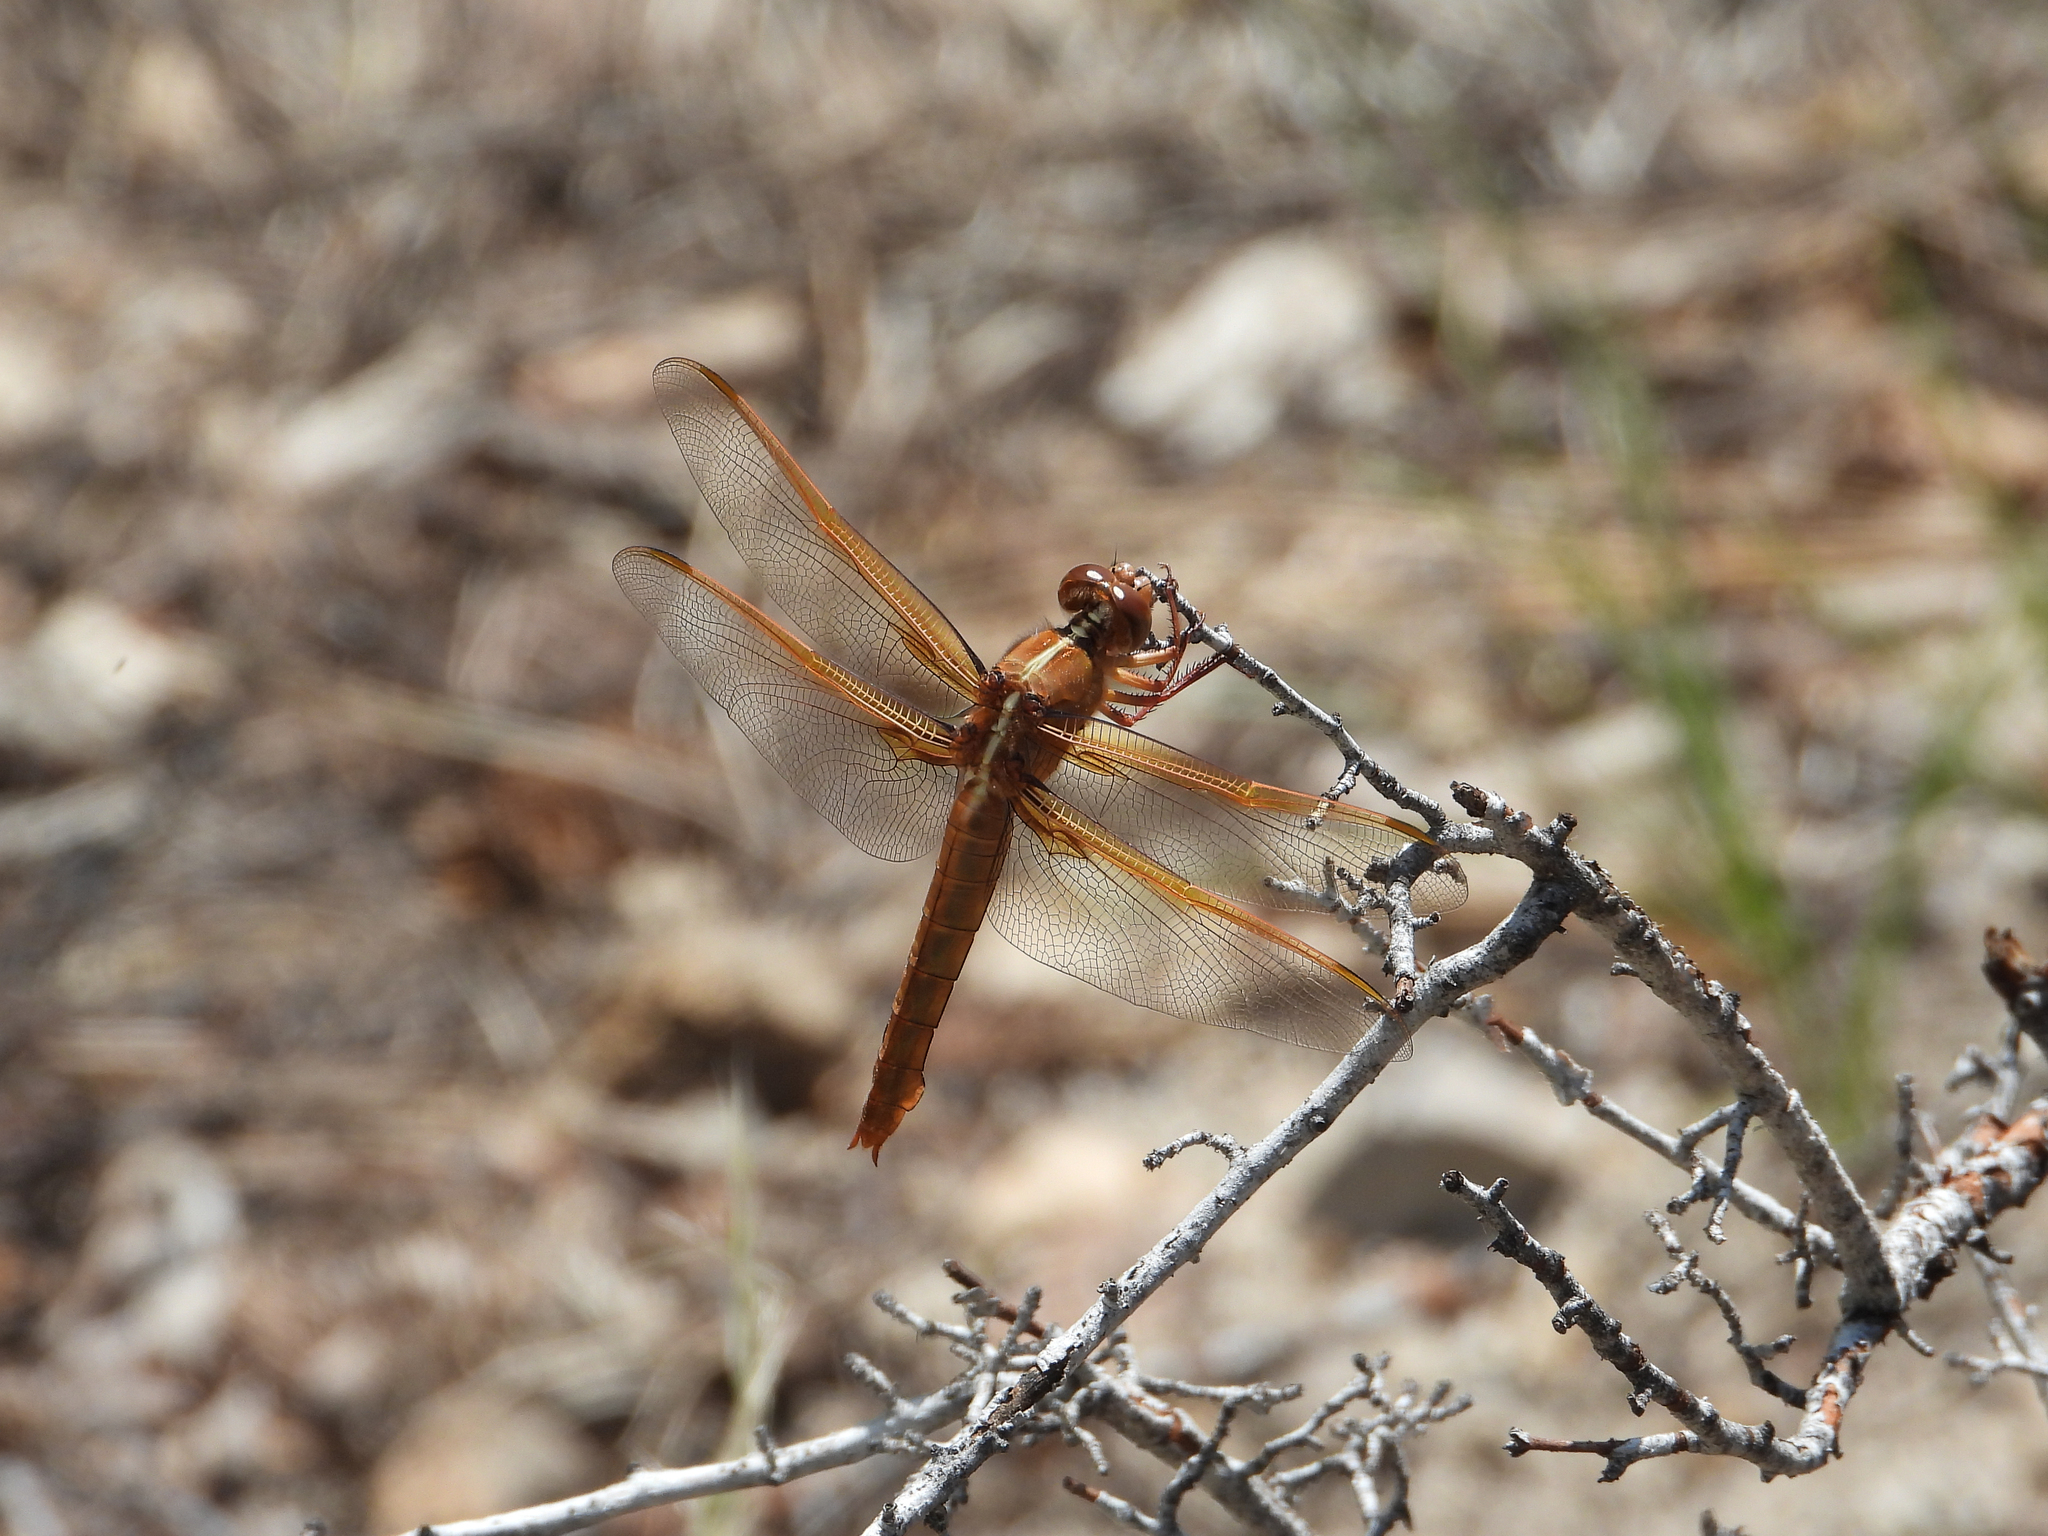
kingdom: Animalia
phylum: Arthropoda
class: Insecta
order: Odonata
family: Libellulidae
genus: Libellula
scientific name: Libellula saturata
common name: Flame skimmer
